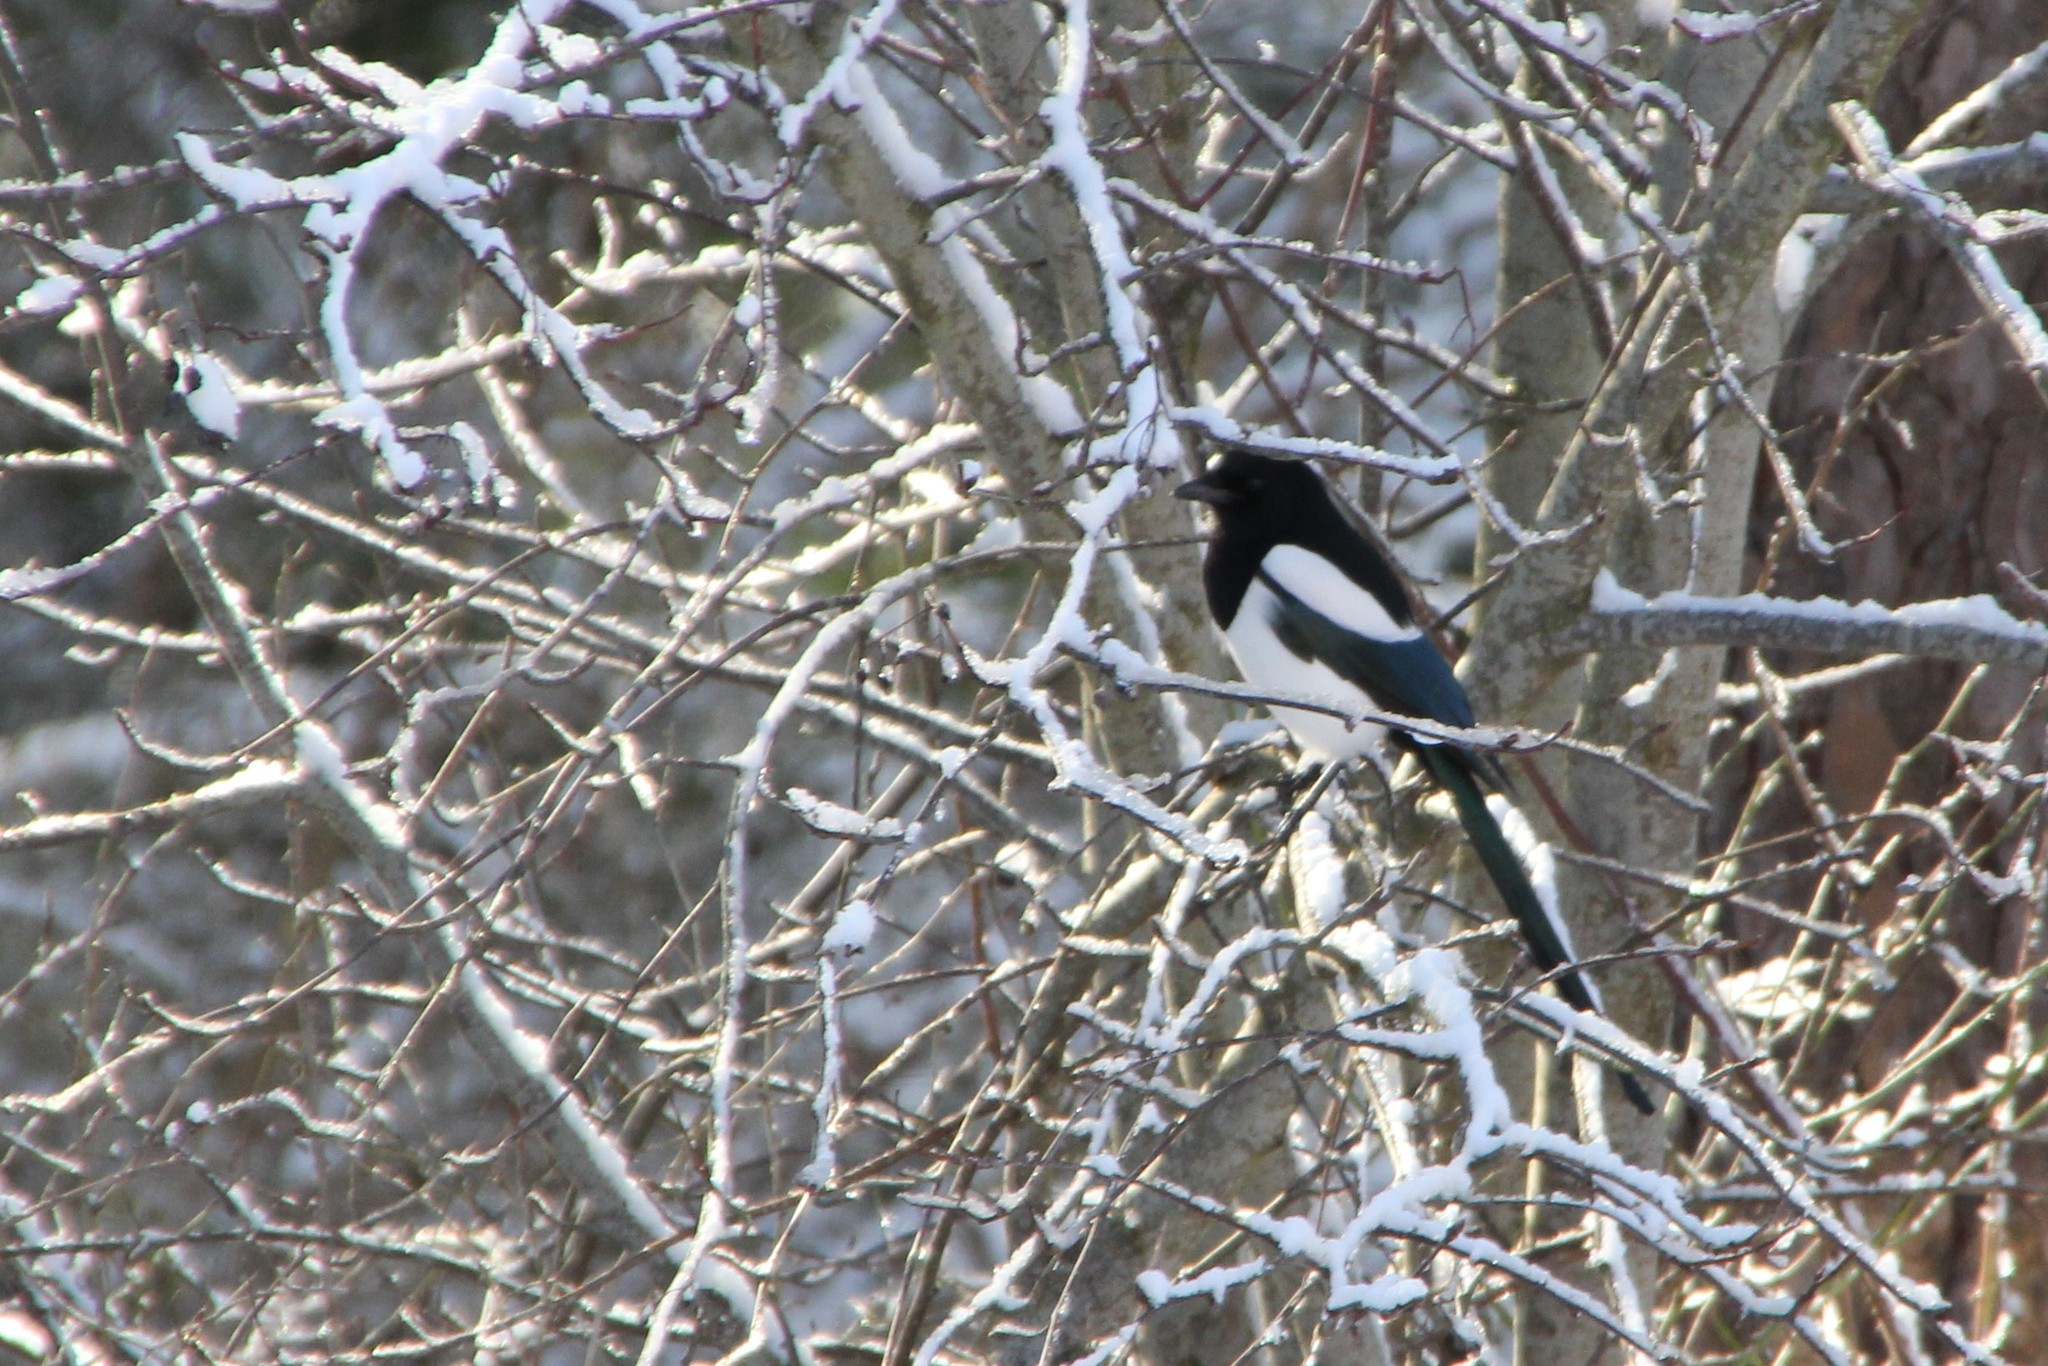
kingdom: Animalia
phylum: Chordata
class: Aves
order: Passeriformes
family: Corvidae
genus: Pica
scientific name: Pica pica
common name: Eurasian magpie
